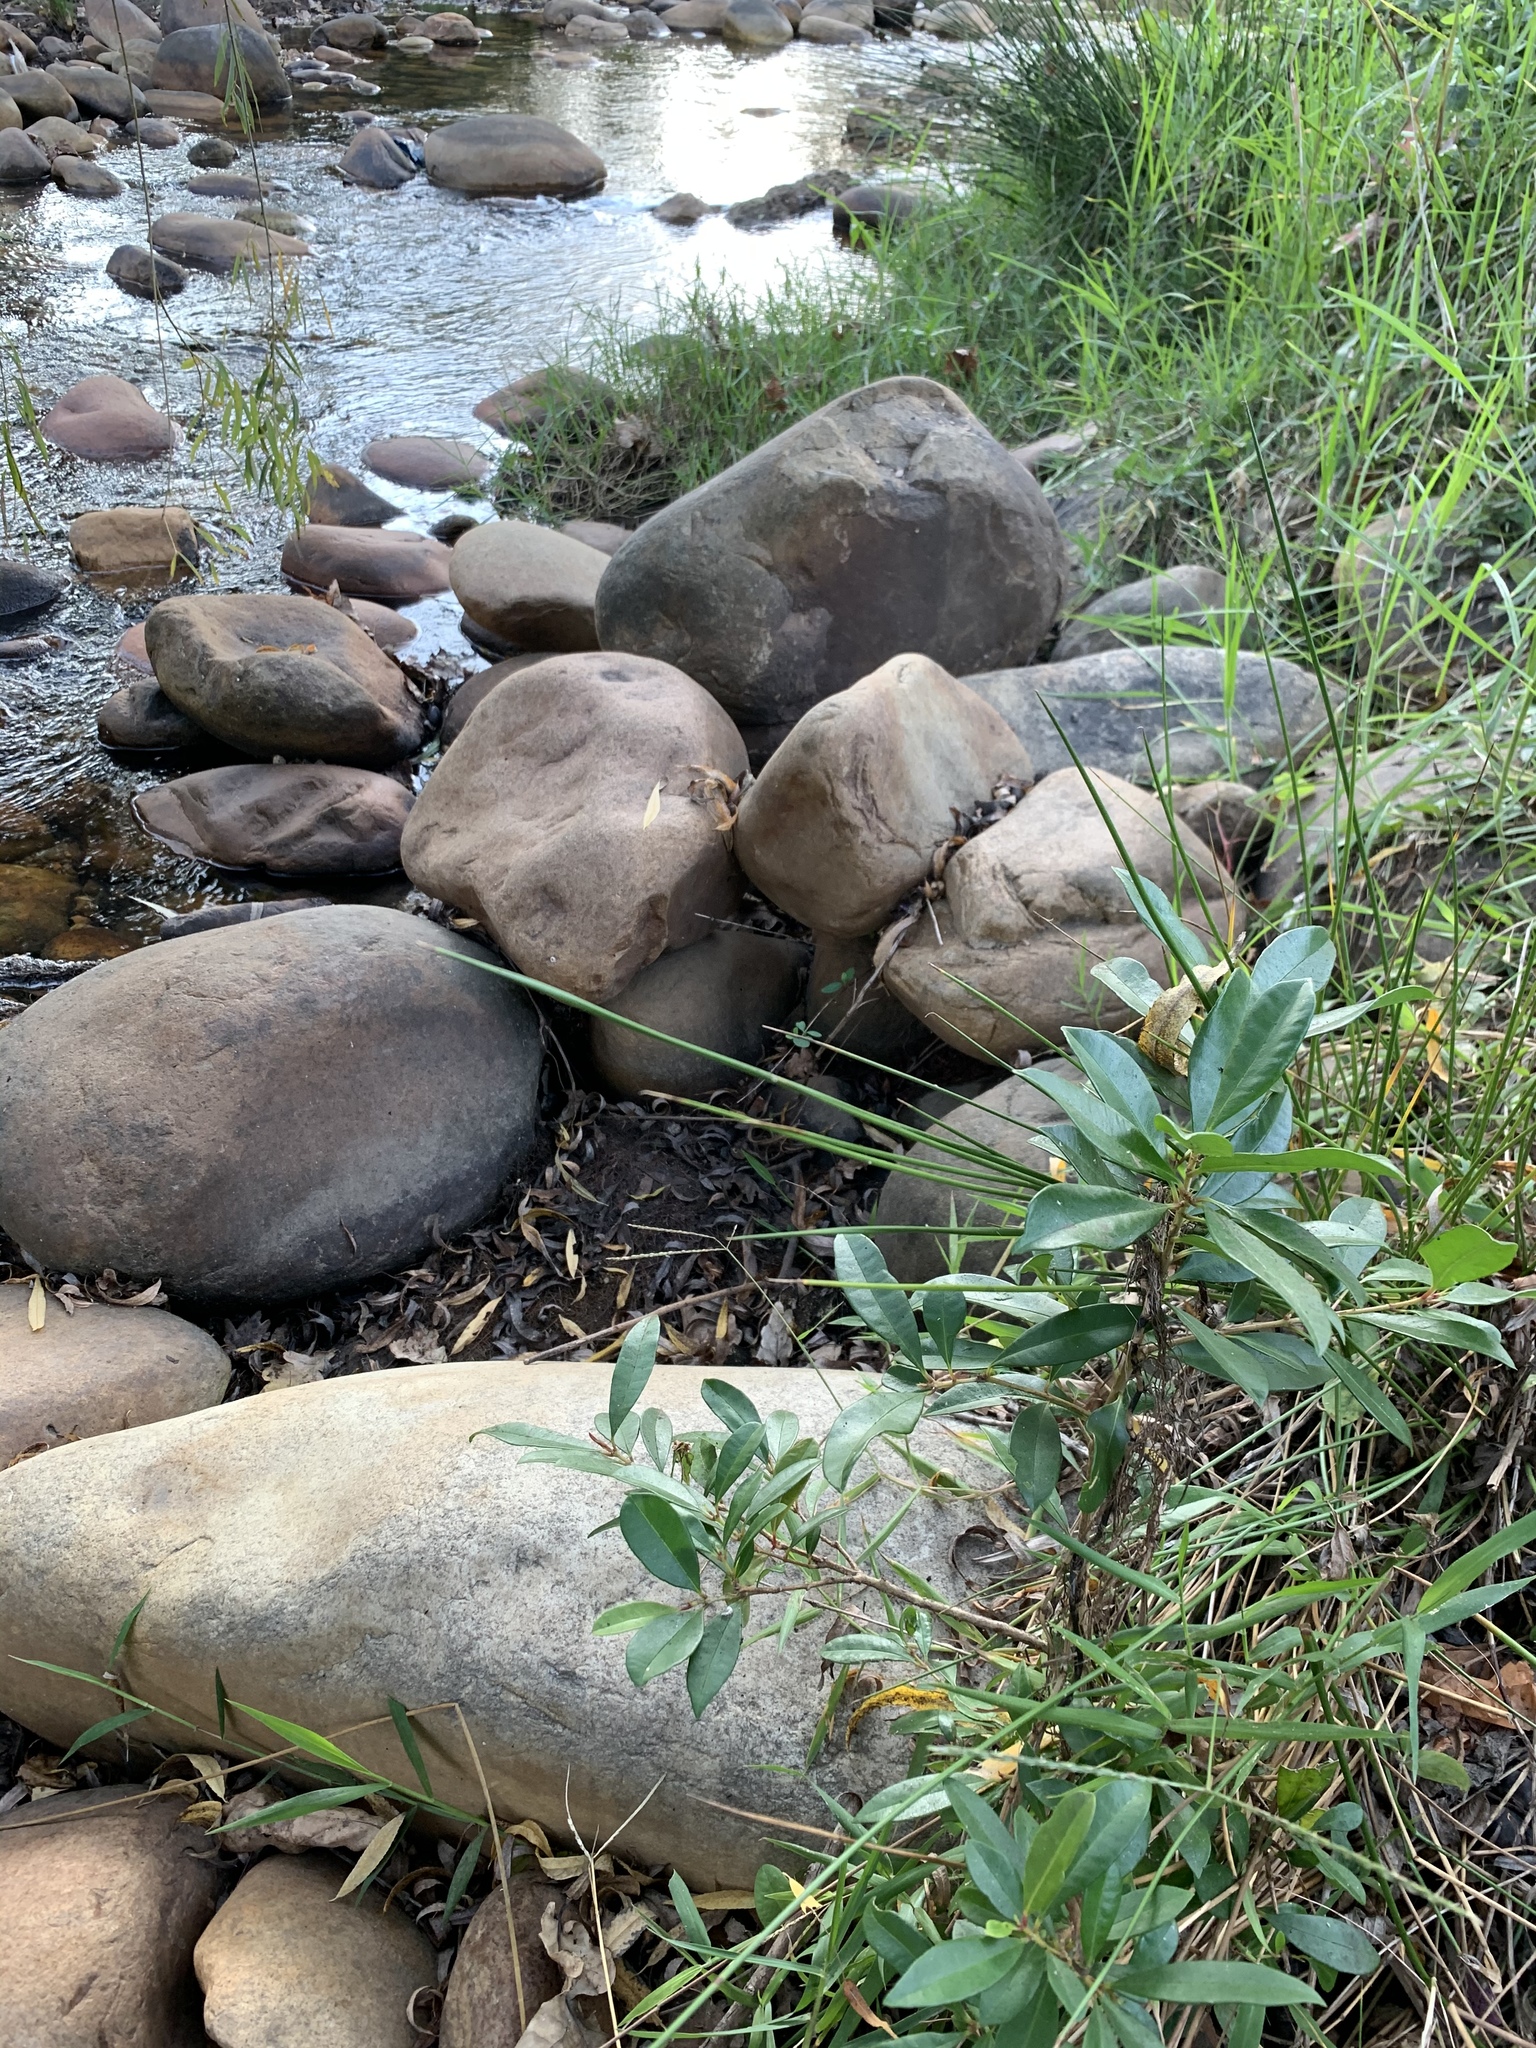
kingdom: Plantae
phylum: Tracheophyta
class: Magnoliopsida
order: Laurales
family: Lauraceae
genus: Cinnamomum
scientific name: Cinnamomum camphora
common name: Camphortree
